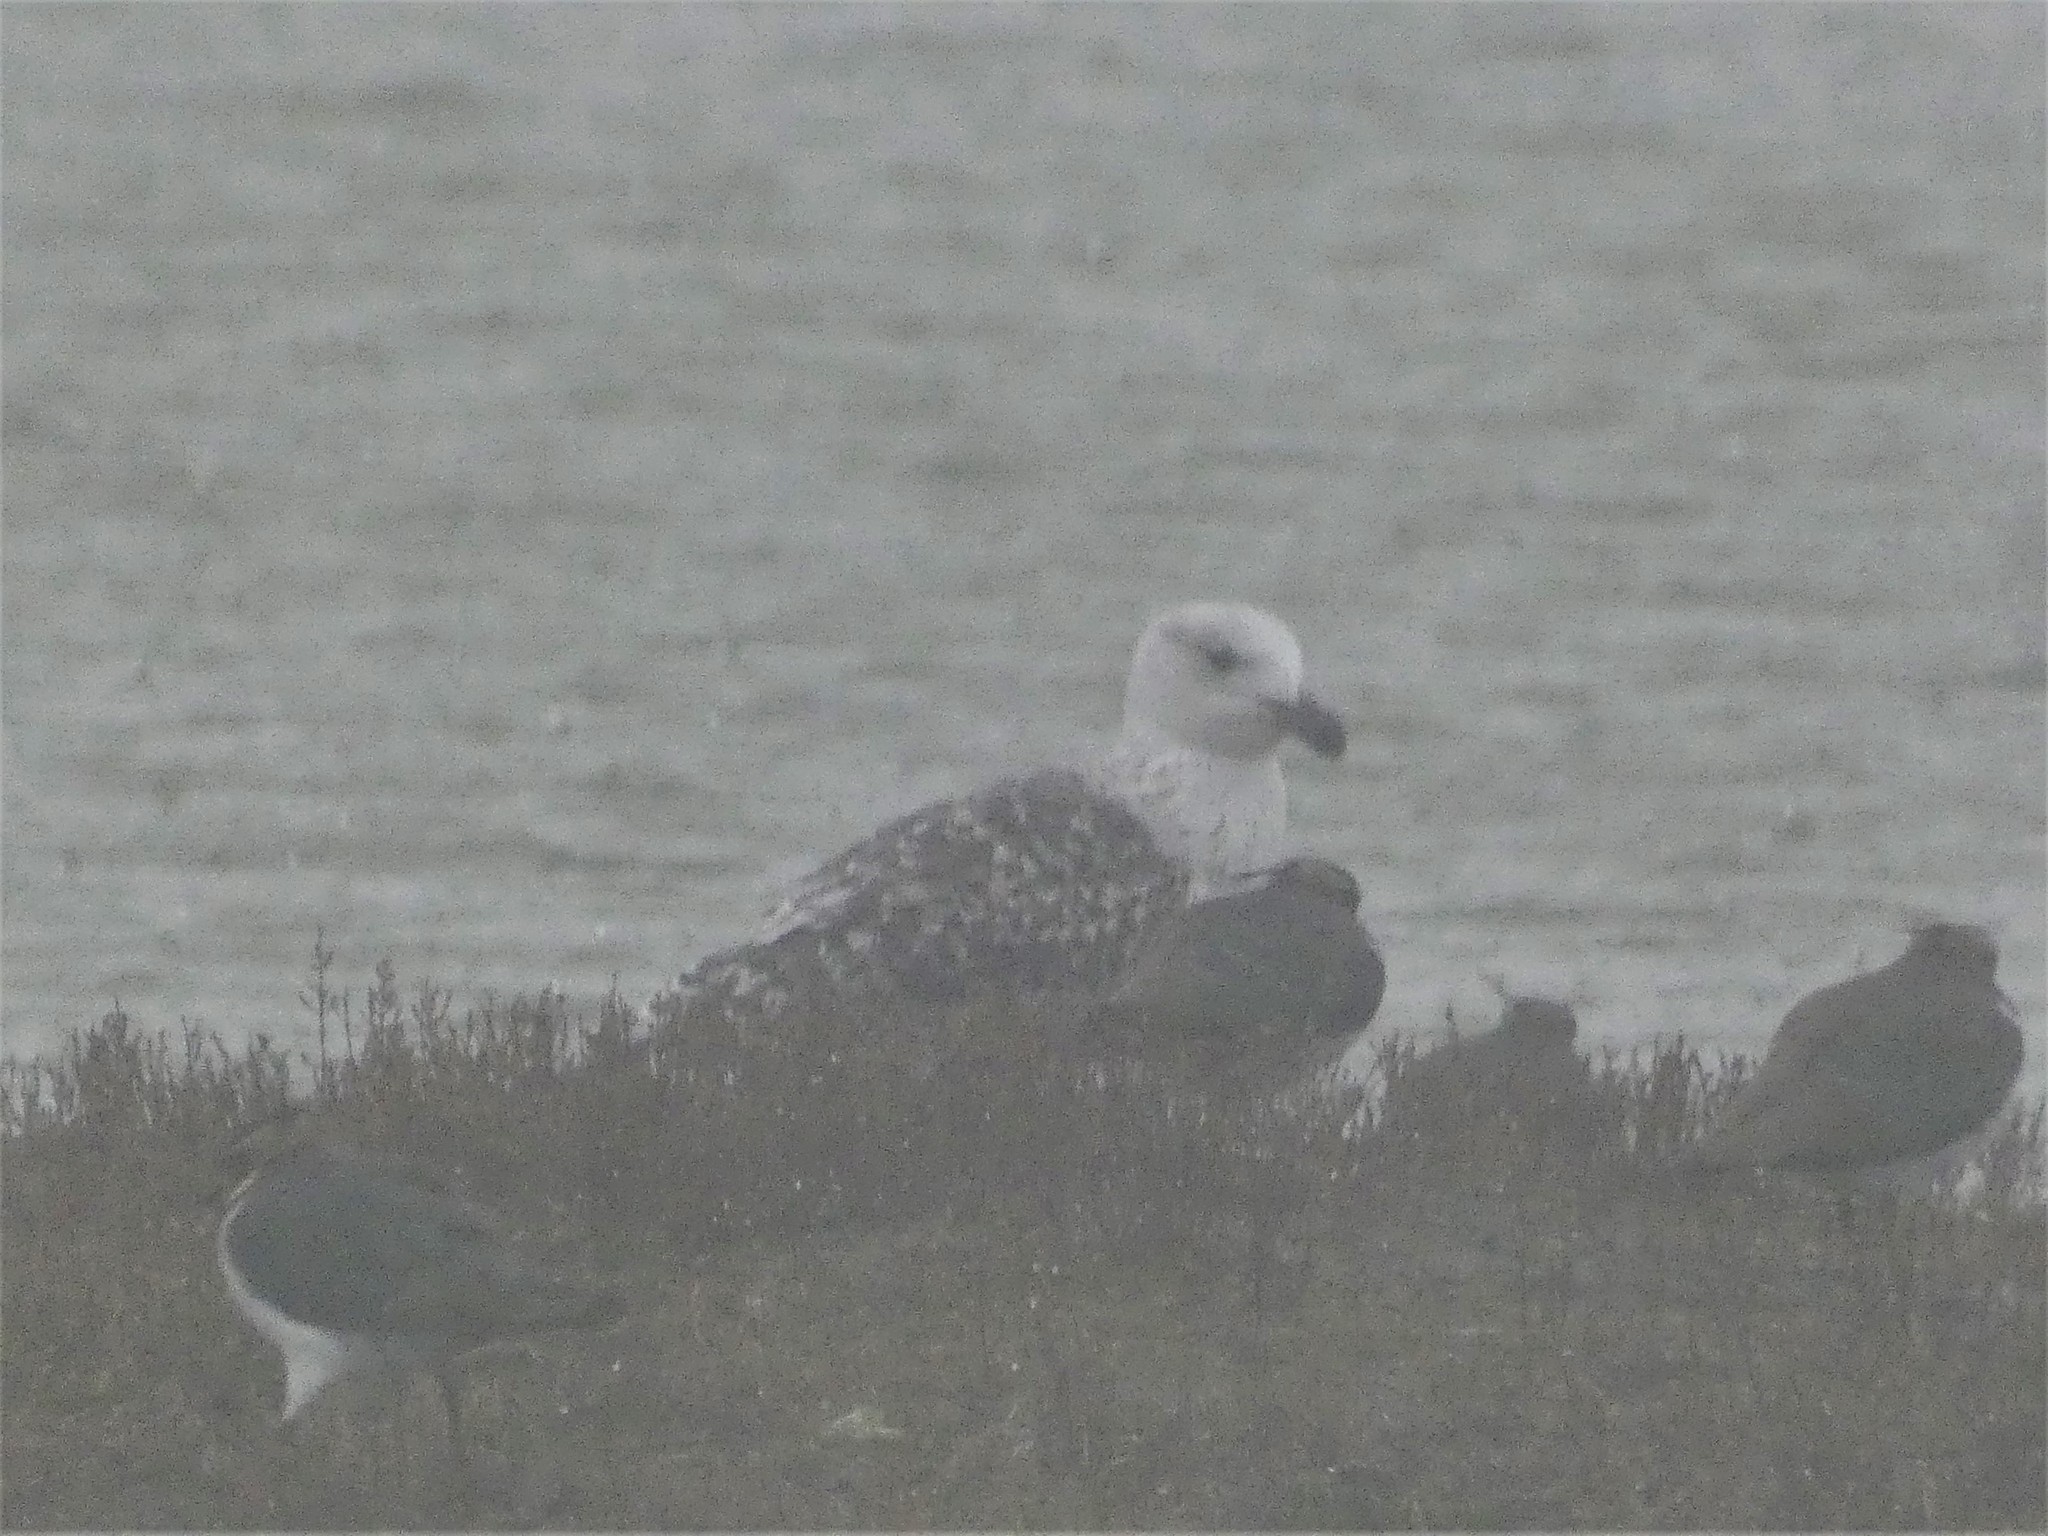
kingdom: Animalia
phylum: Chordata
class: Aves
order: Charadriiformes
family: Laridae
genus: Larus
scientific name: Larus marinus
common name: Great black-backed gull
